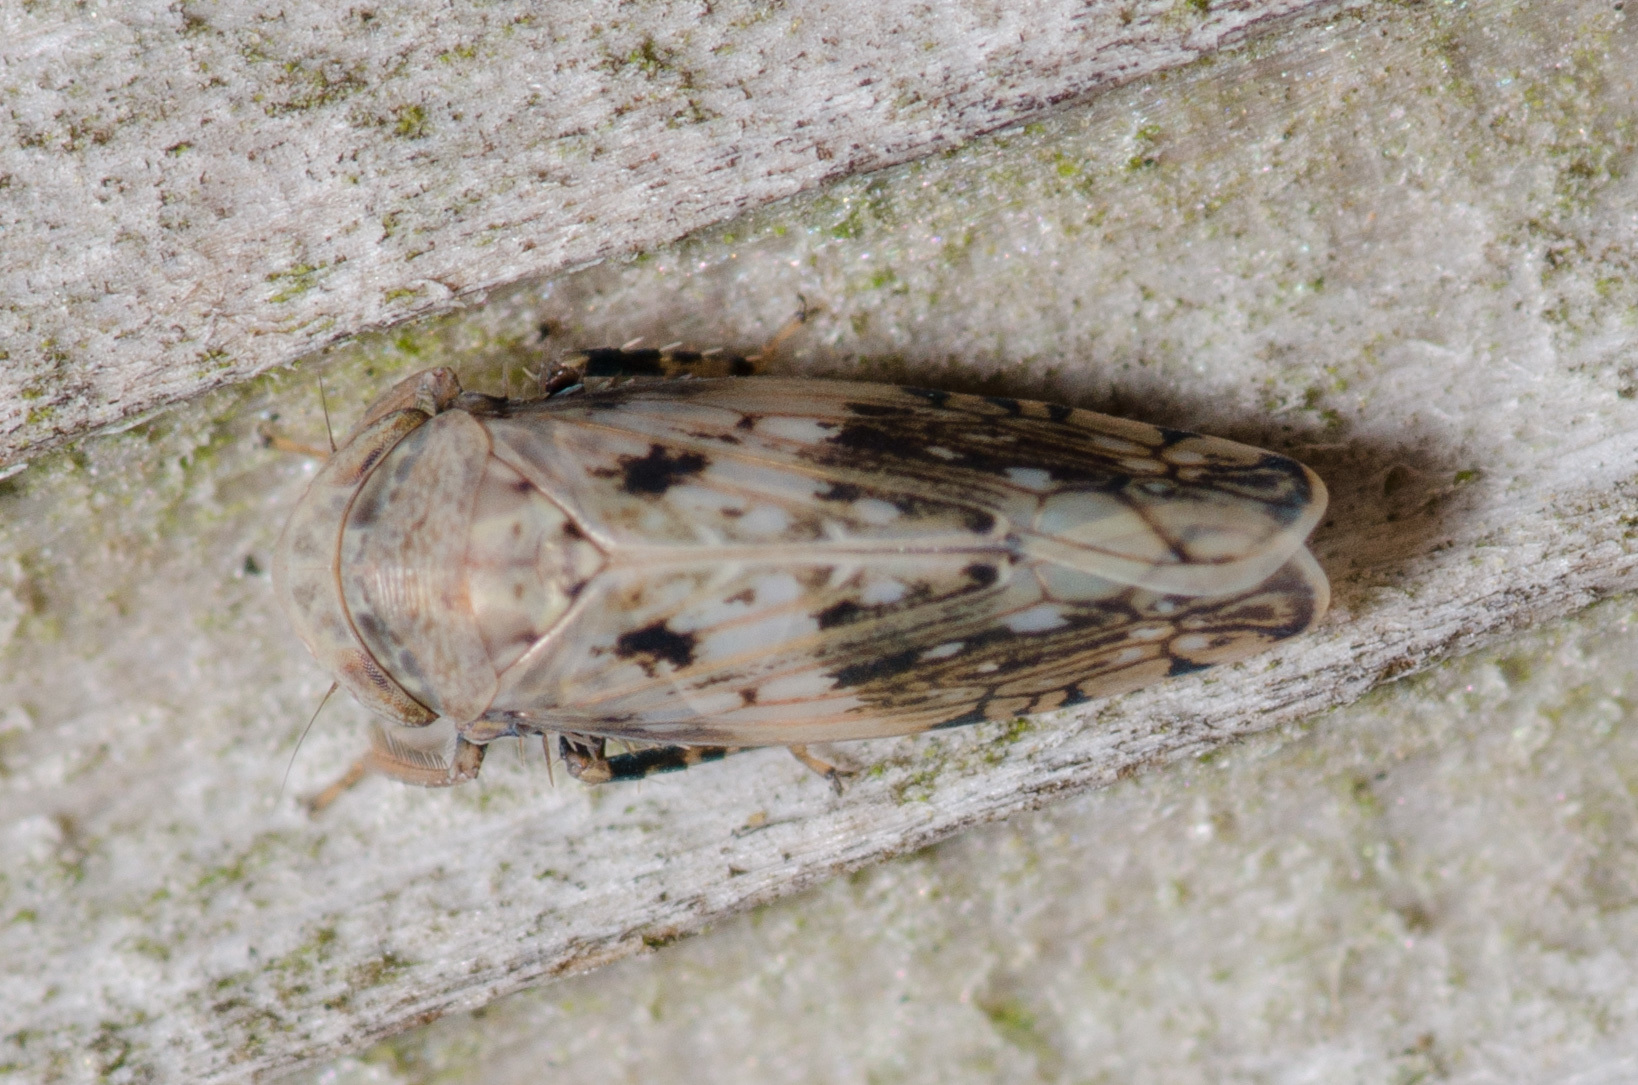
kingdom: Animalia
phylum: Arthropoda
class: Insecta
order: Hemiptera
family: Cicadellidae
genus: Menosoma
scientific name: Menosoma cinctum
